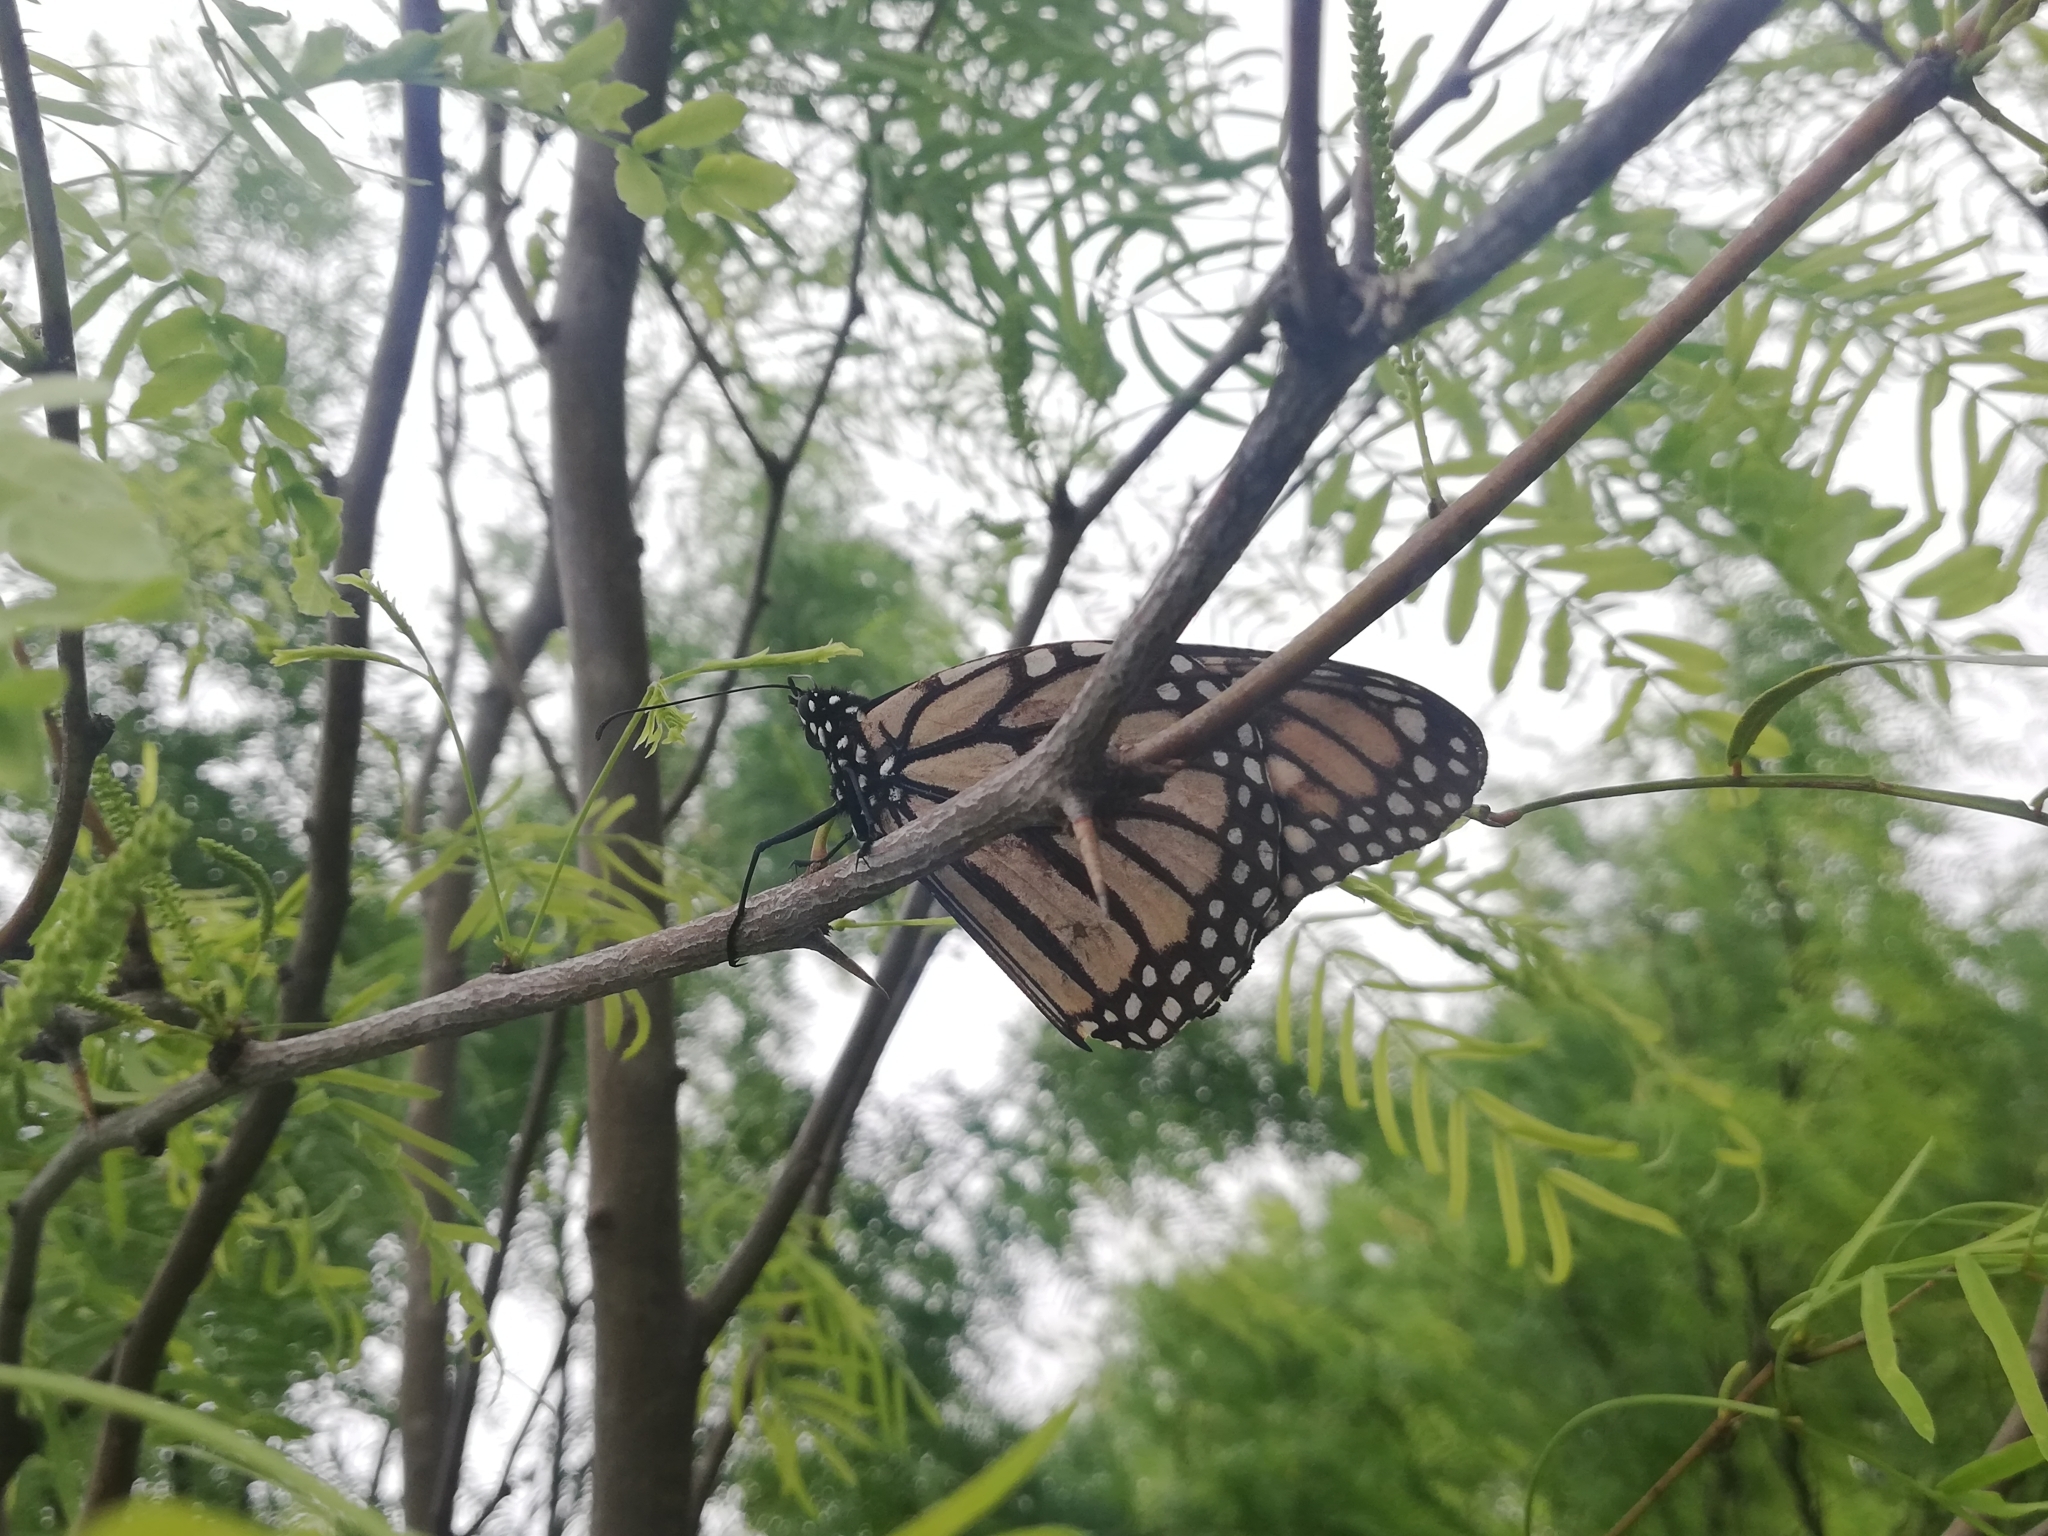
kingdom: Animalia
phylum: Arthropoda
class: Insecta
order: Lepidoptera
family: Nymphalidae
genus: Danaus
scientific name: Danaus plexippus
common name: Monarch
